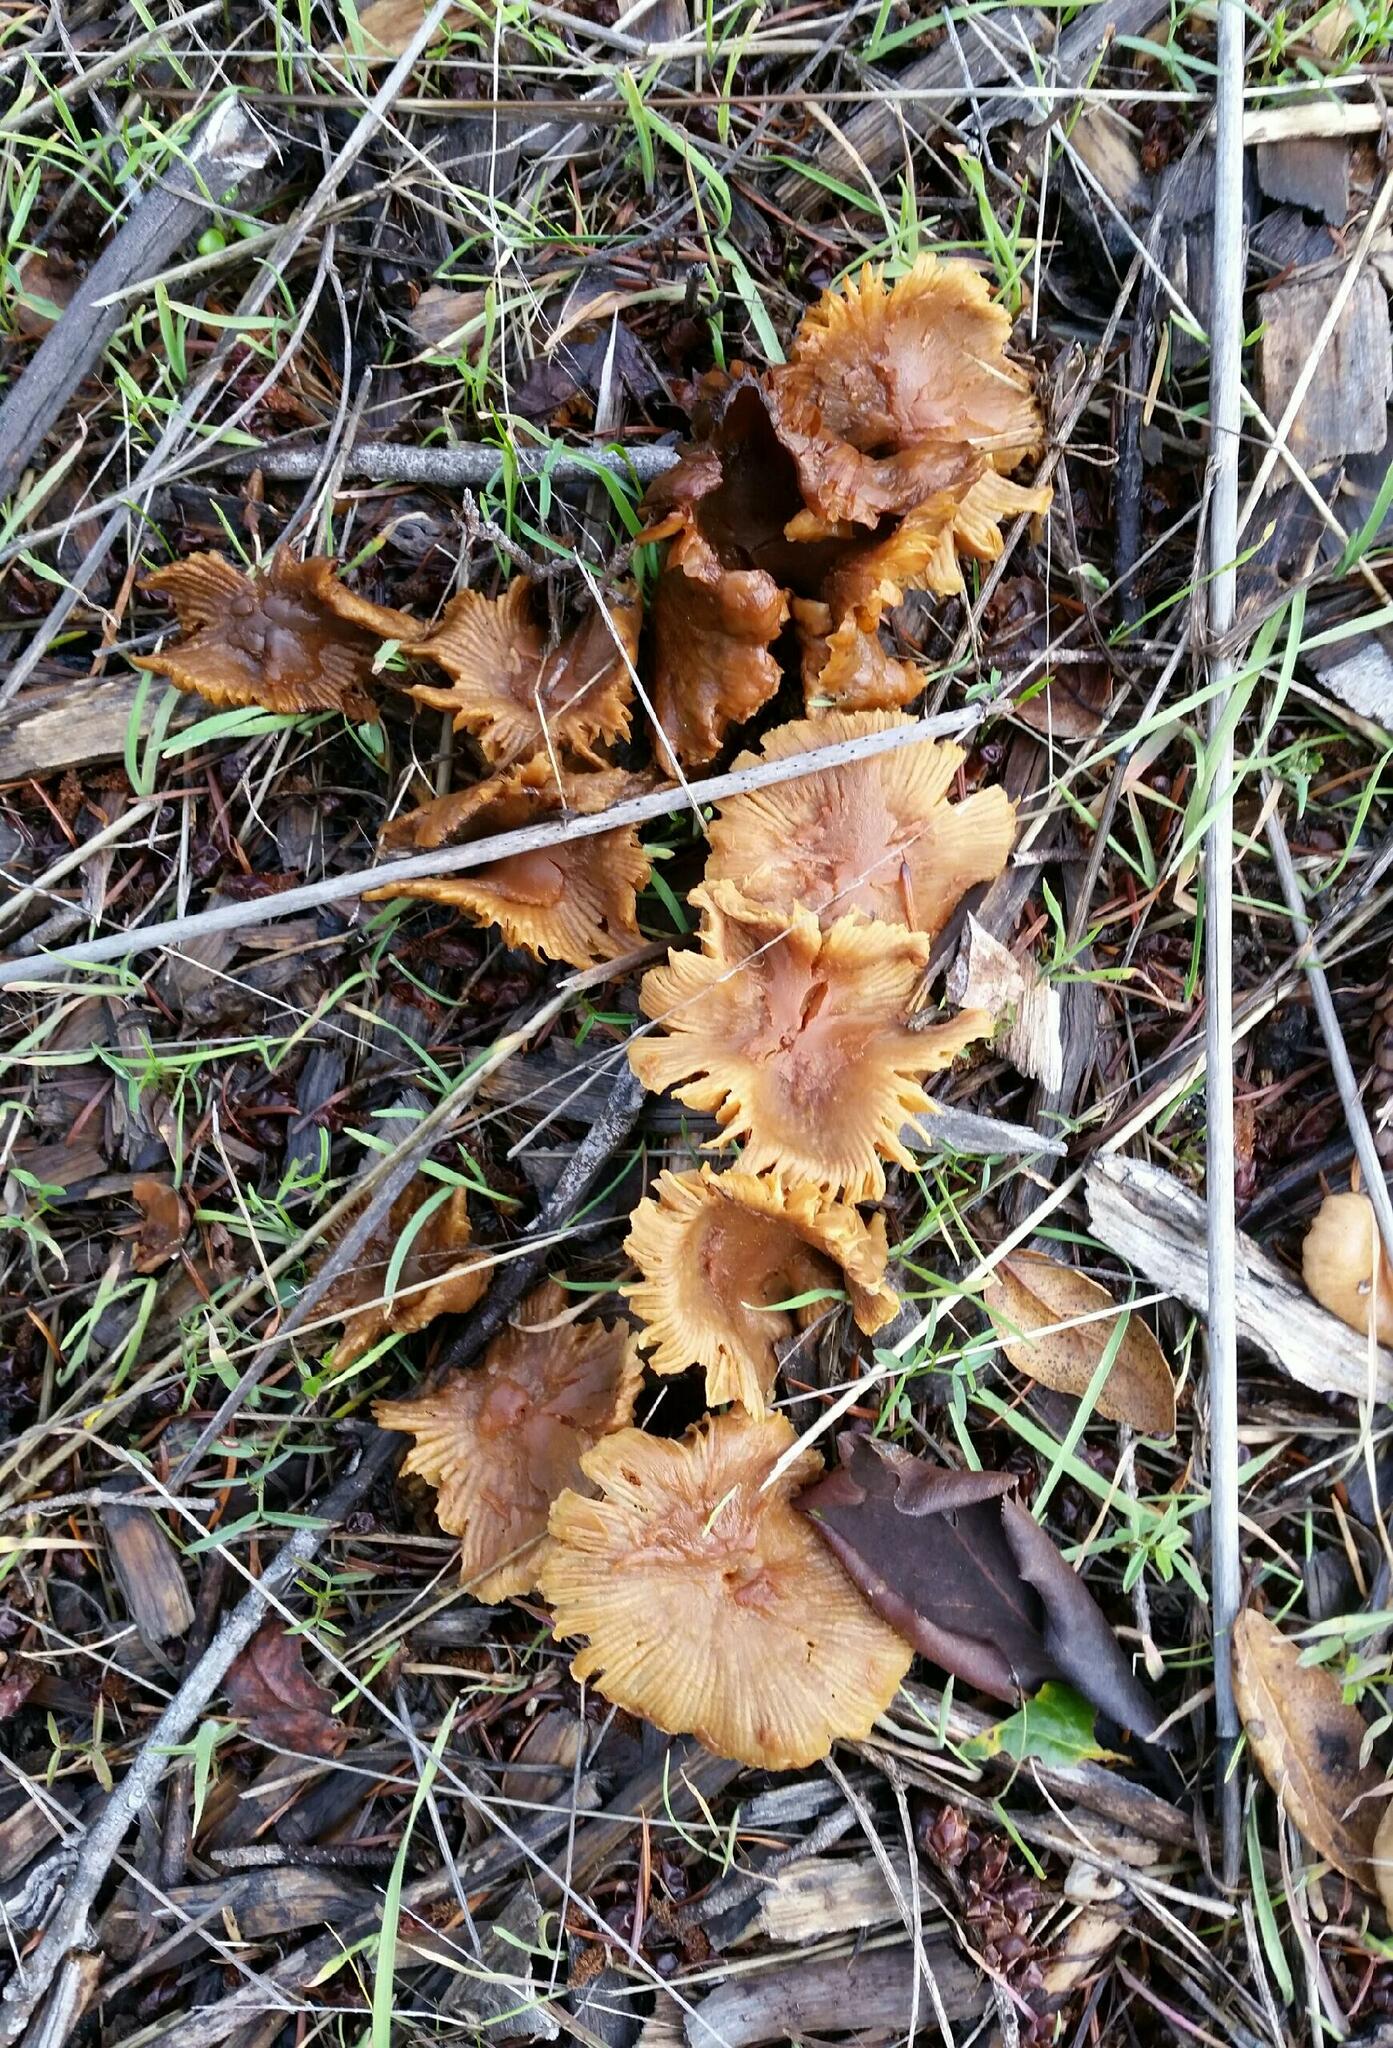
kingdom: Fungi
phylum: Basidiomycota
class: Agaricomycetes
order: Agaricales
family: Hymenogastraceae
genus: Gymnopilus
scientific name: Gymnopilus aurantiophyllus
